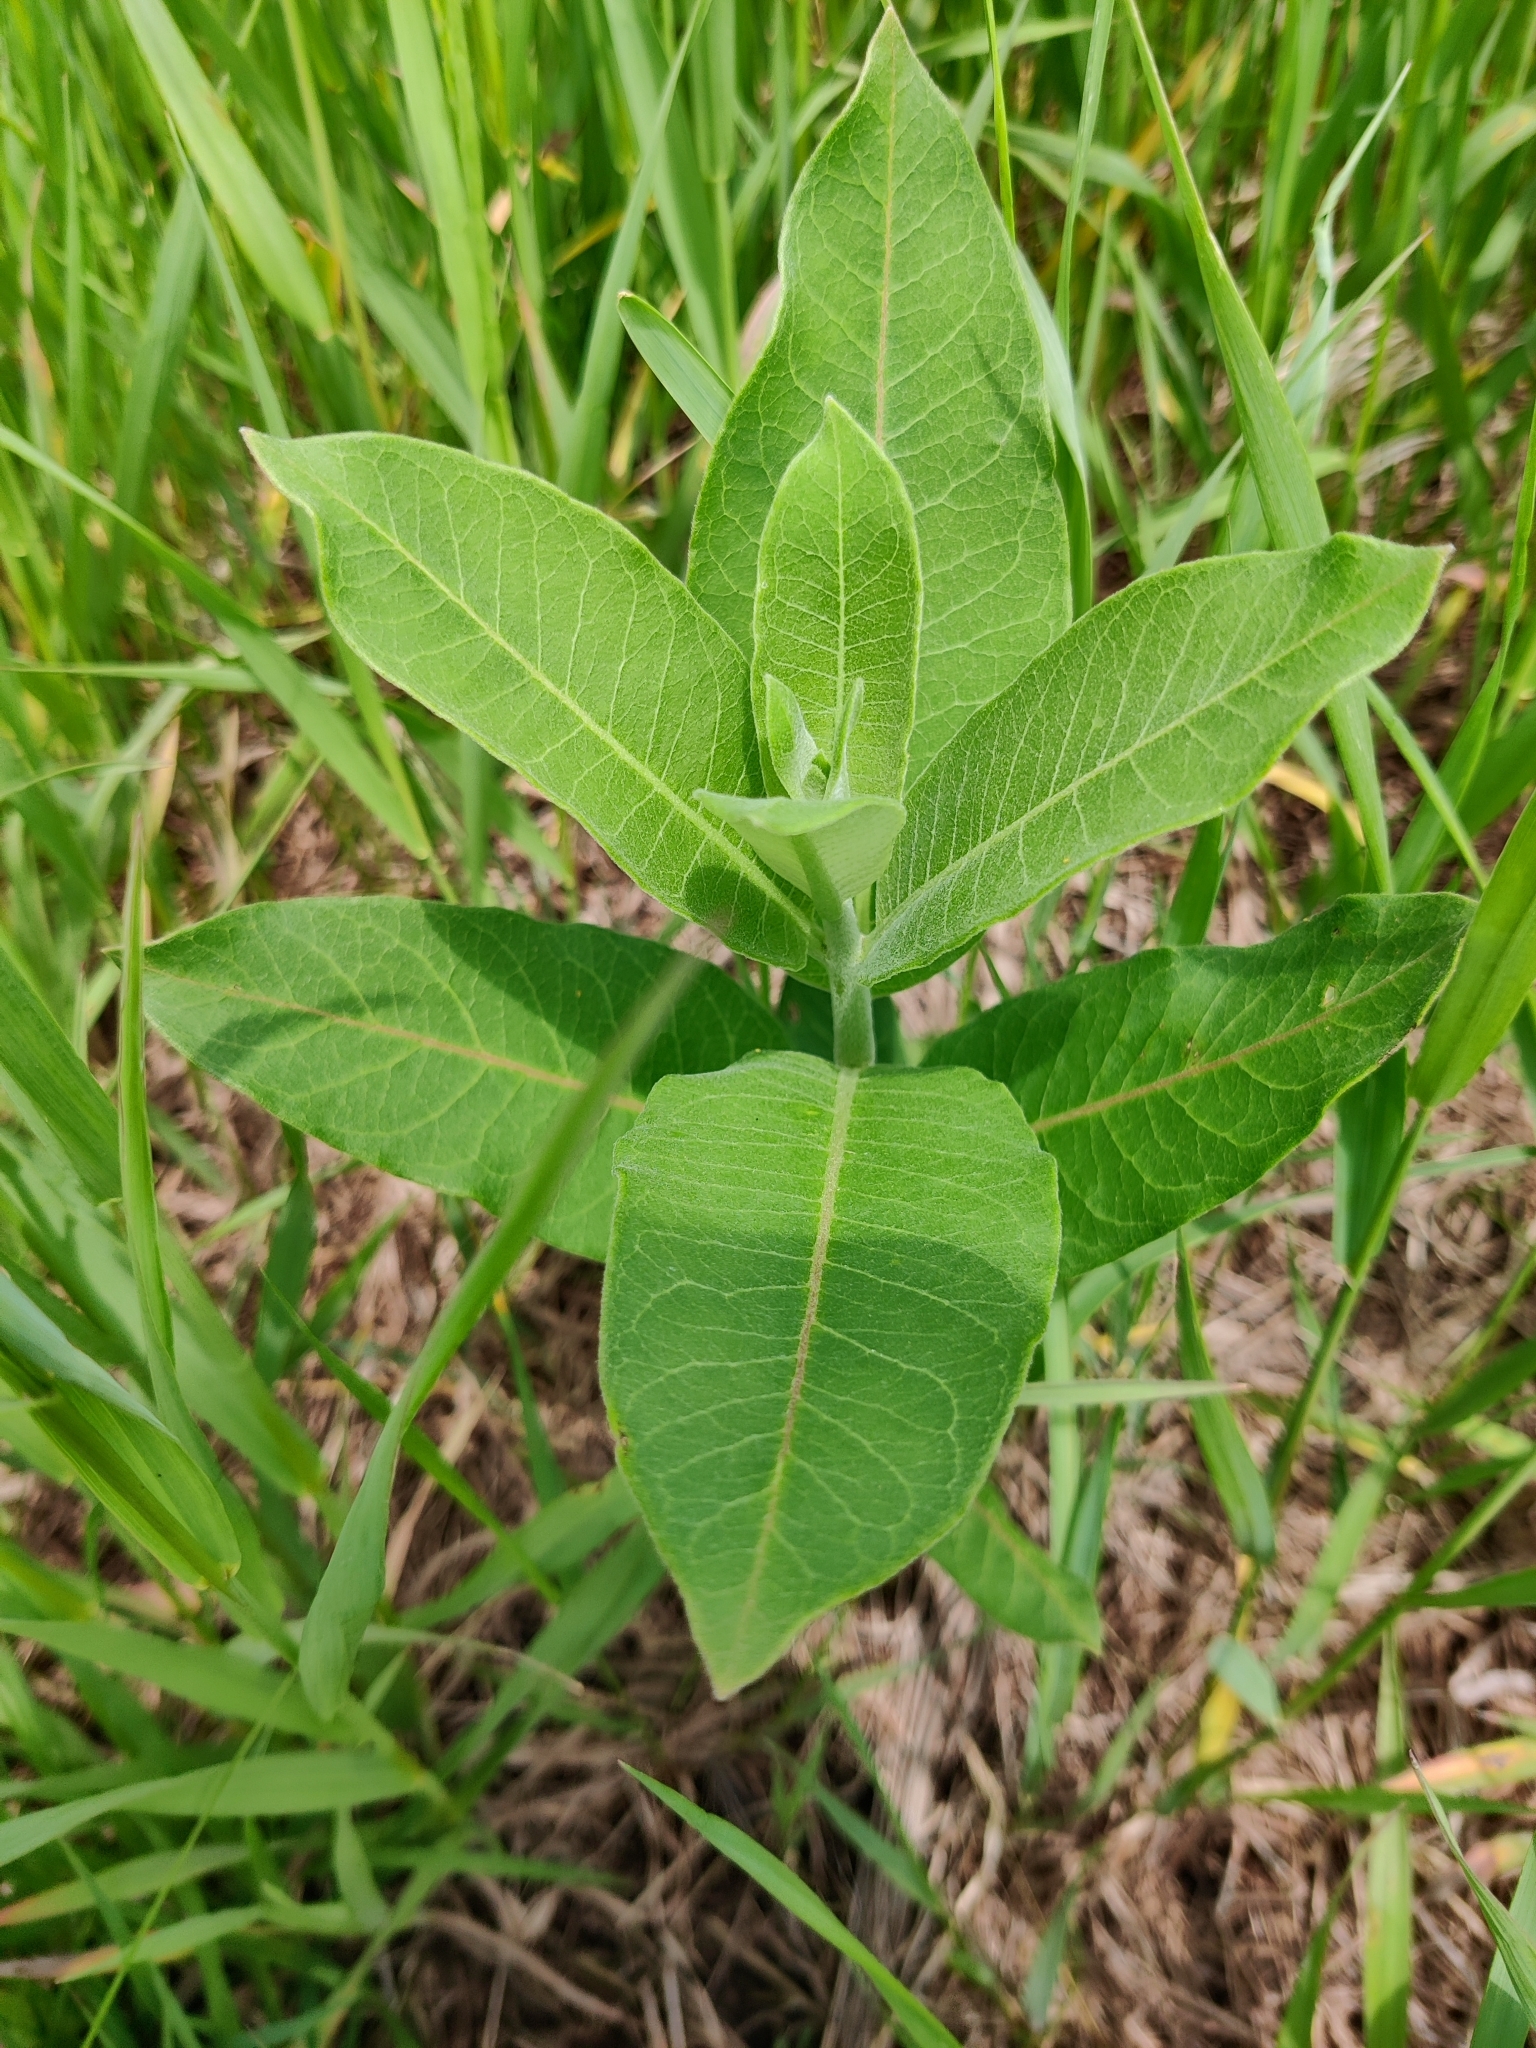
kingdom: Plantae
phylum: Tracheophyta
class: Magnoliopsida
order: Gentianales
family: Apocynaceae
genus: Asclepias
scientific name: Asclepias syriaca
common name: Common milkweed
